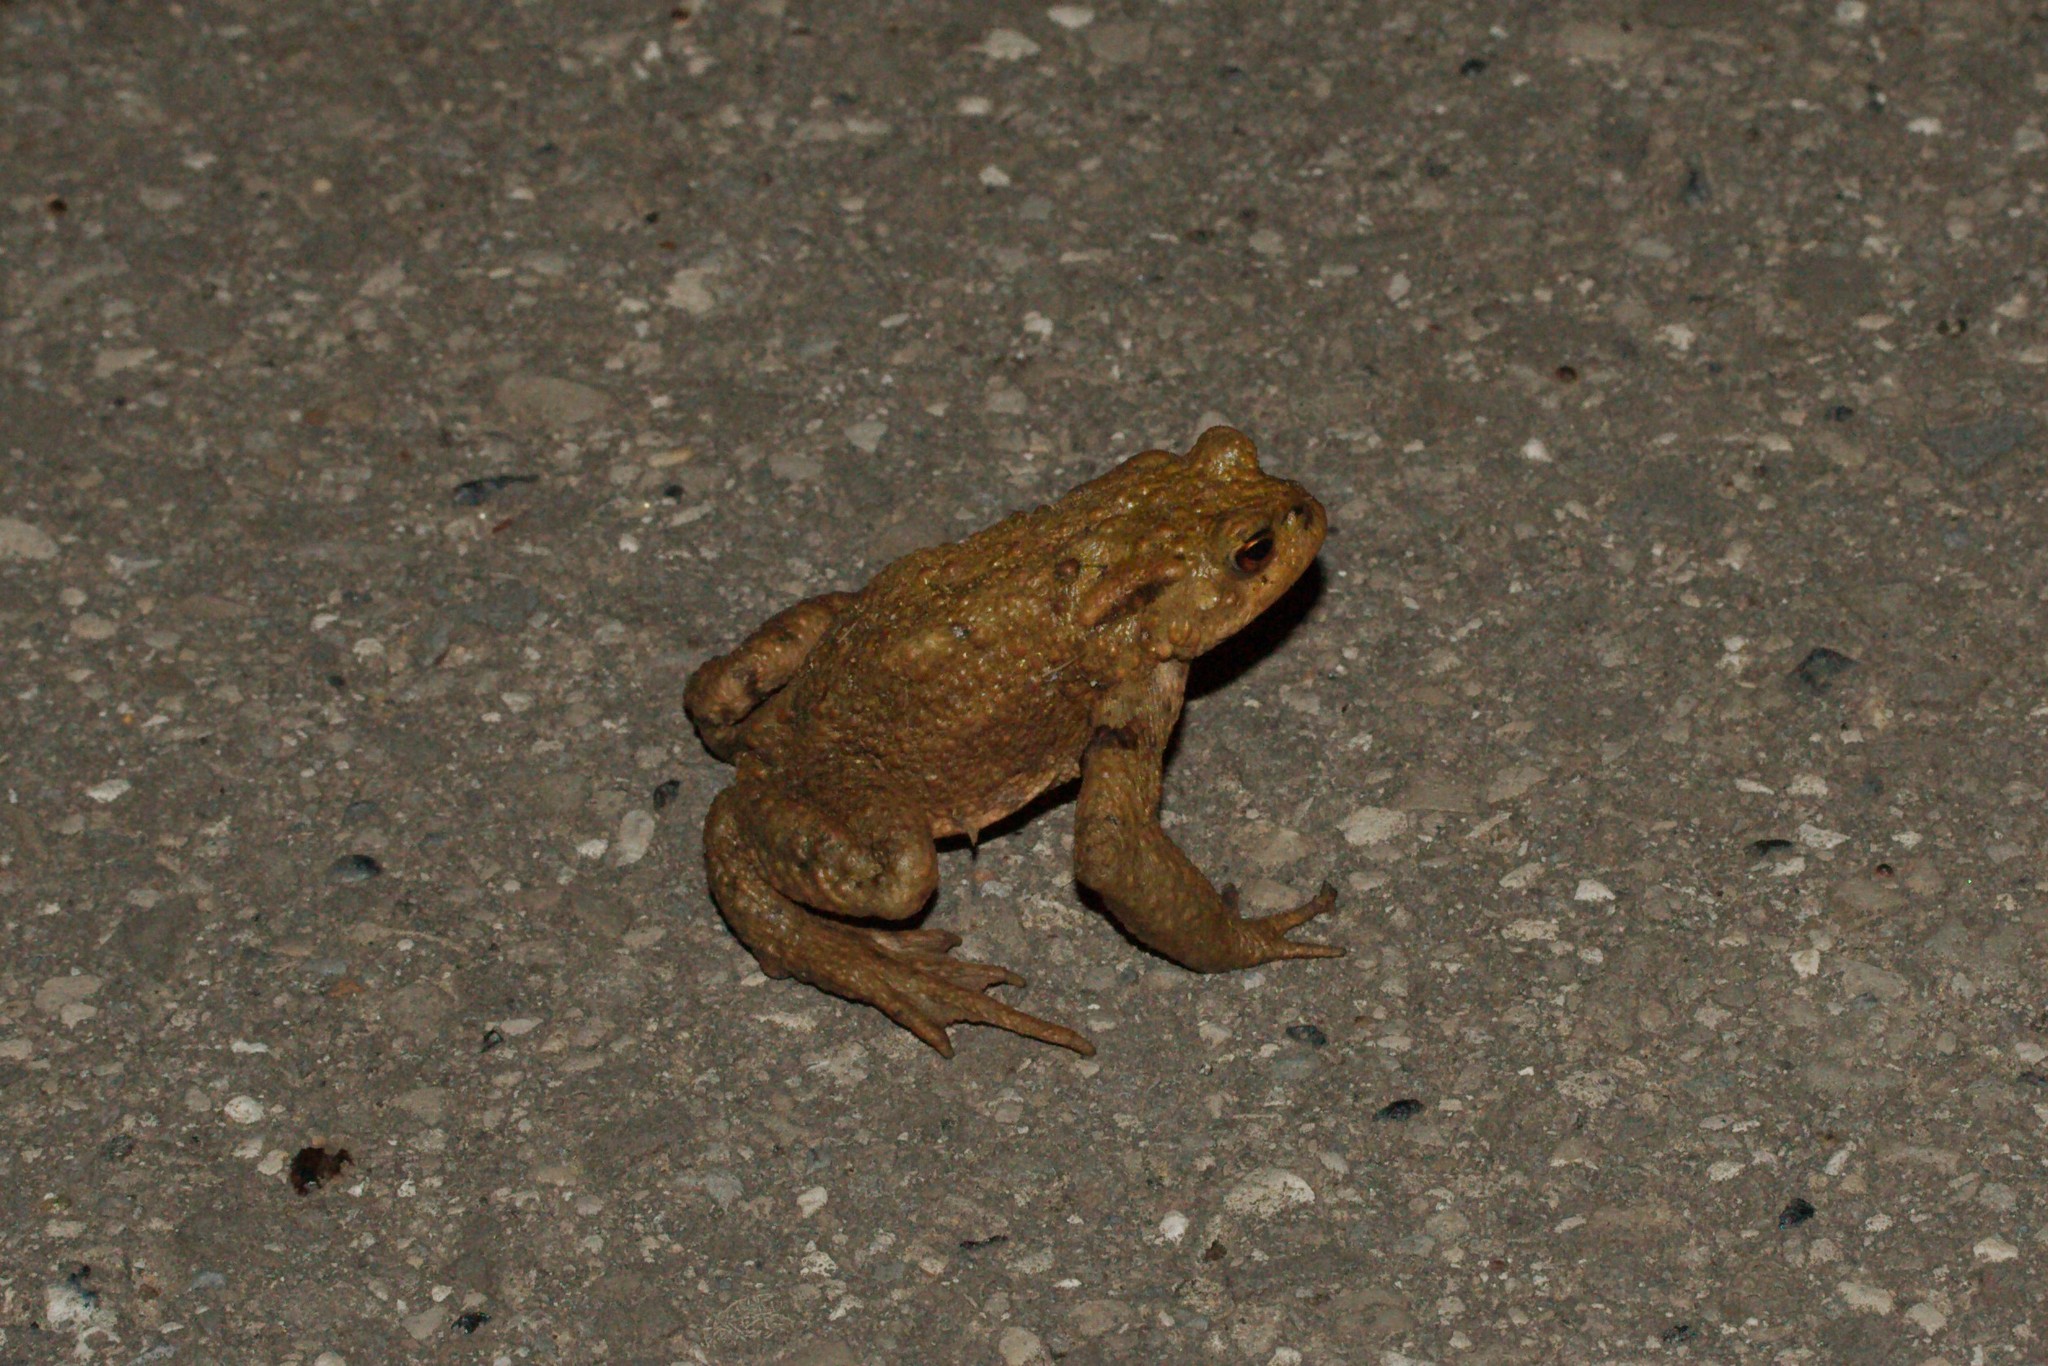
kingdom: Animalia
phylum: Chordata
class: Amphibia
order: Anura
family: Bufonidae
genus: Bufo
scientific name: Bufo bufo
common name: Common toad
